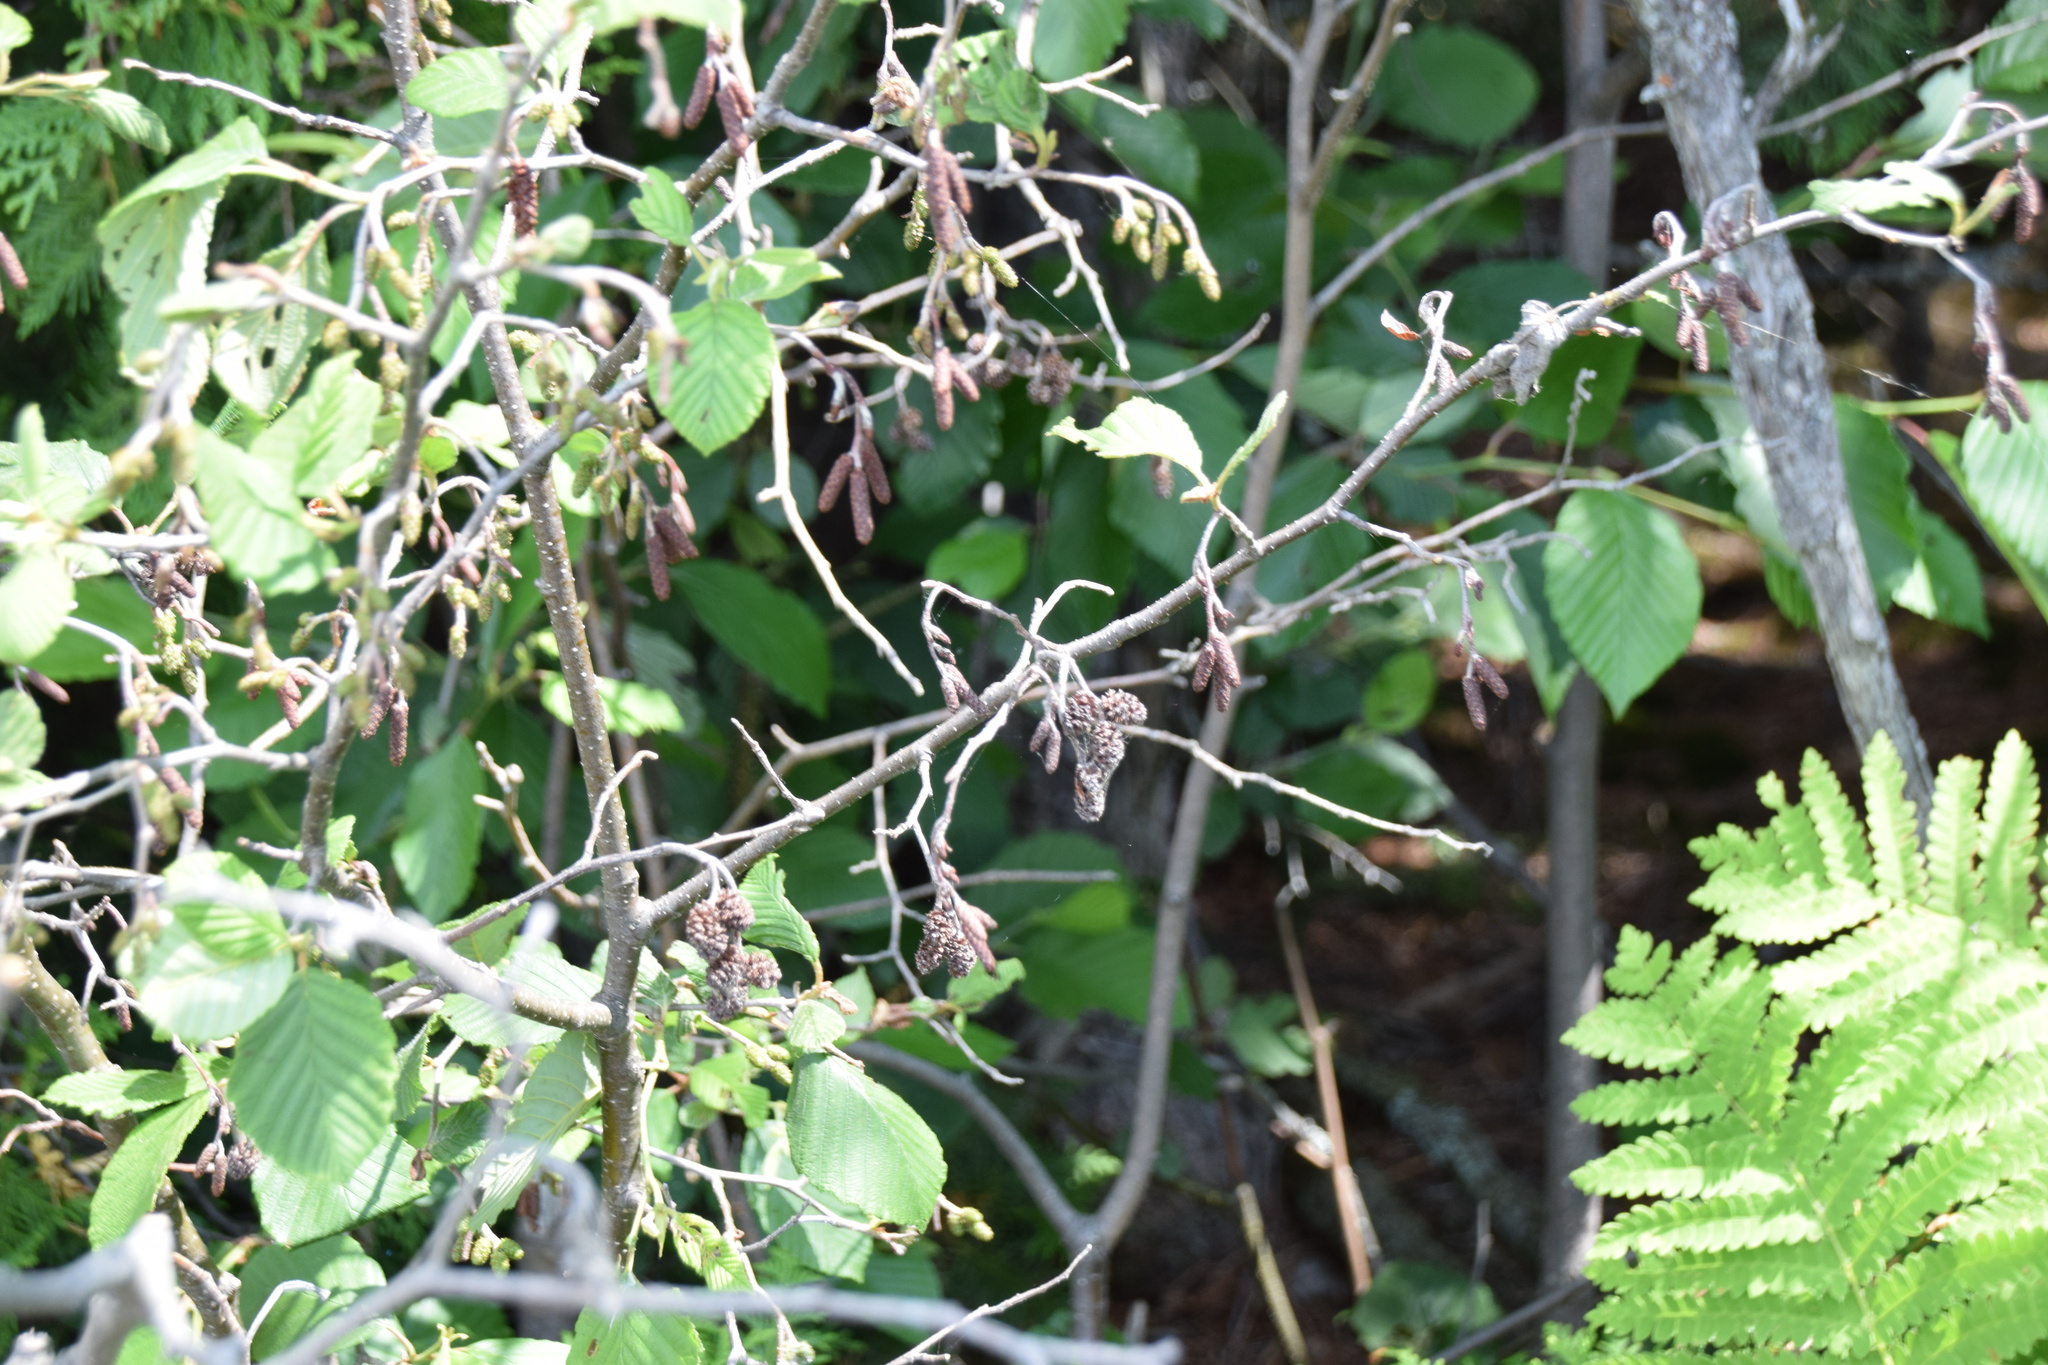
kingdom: Plantae
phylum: Tracheophyta
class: Magnoliopsida
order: Fagales
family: Betulaceae
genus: Alnus
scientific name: Alnus incana
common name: Grey alder
